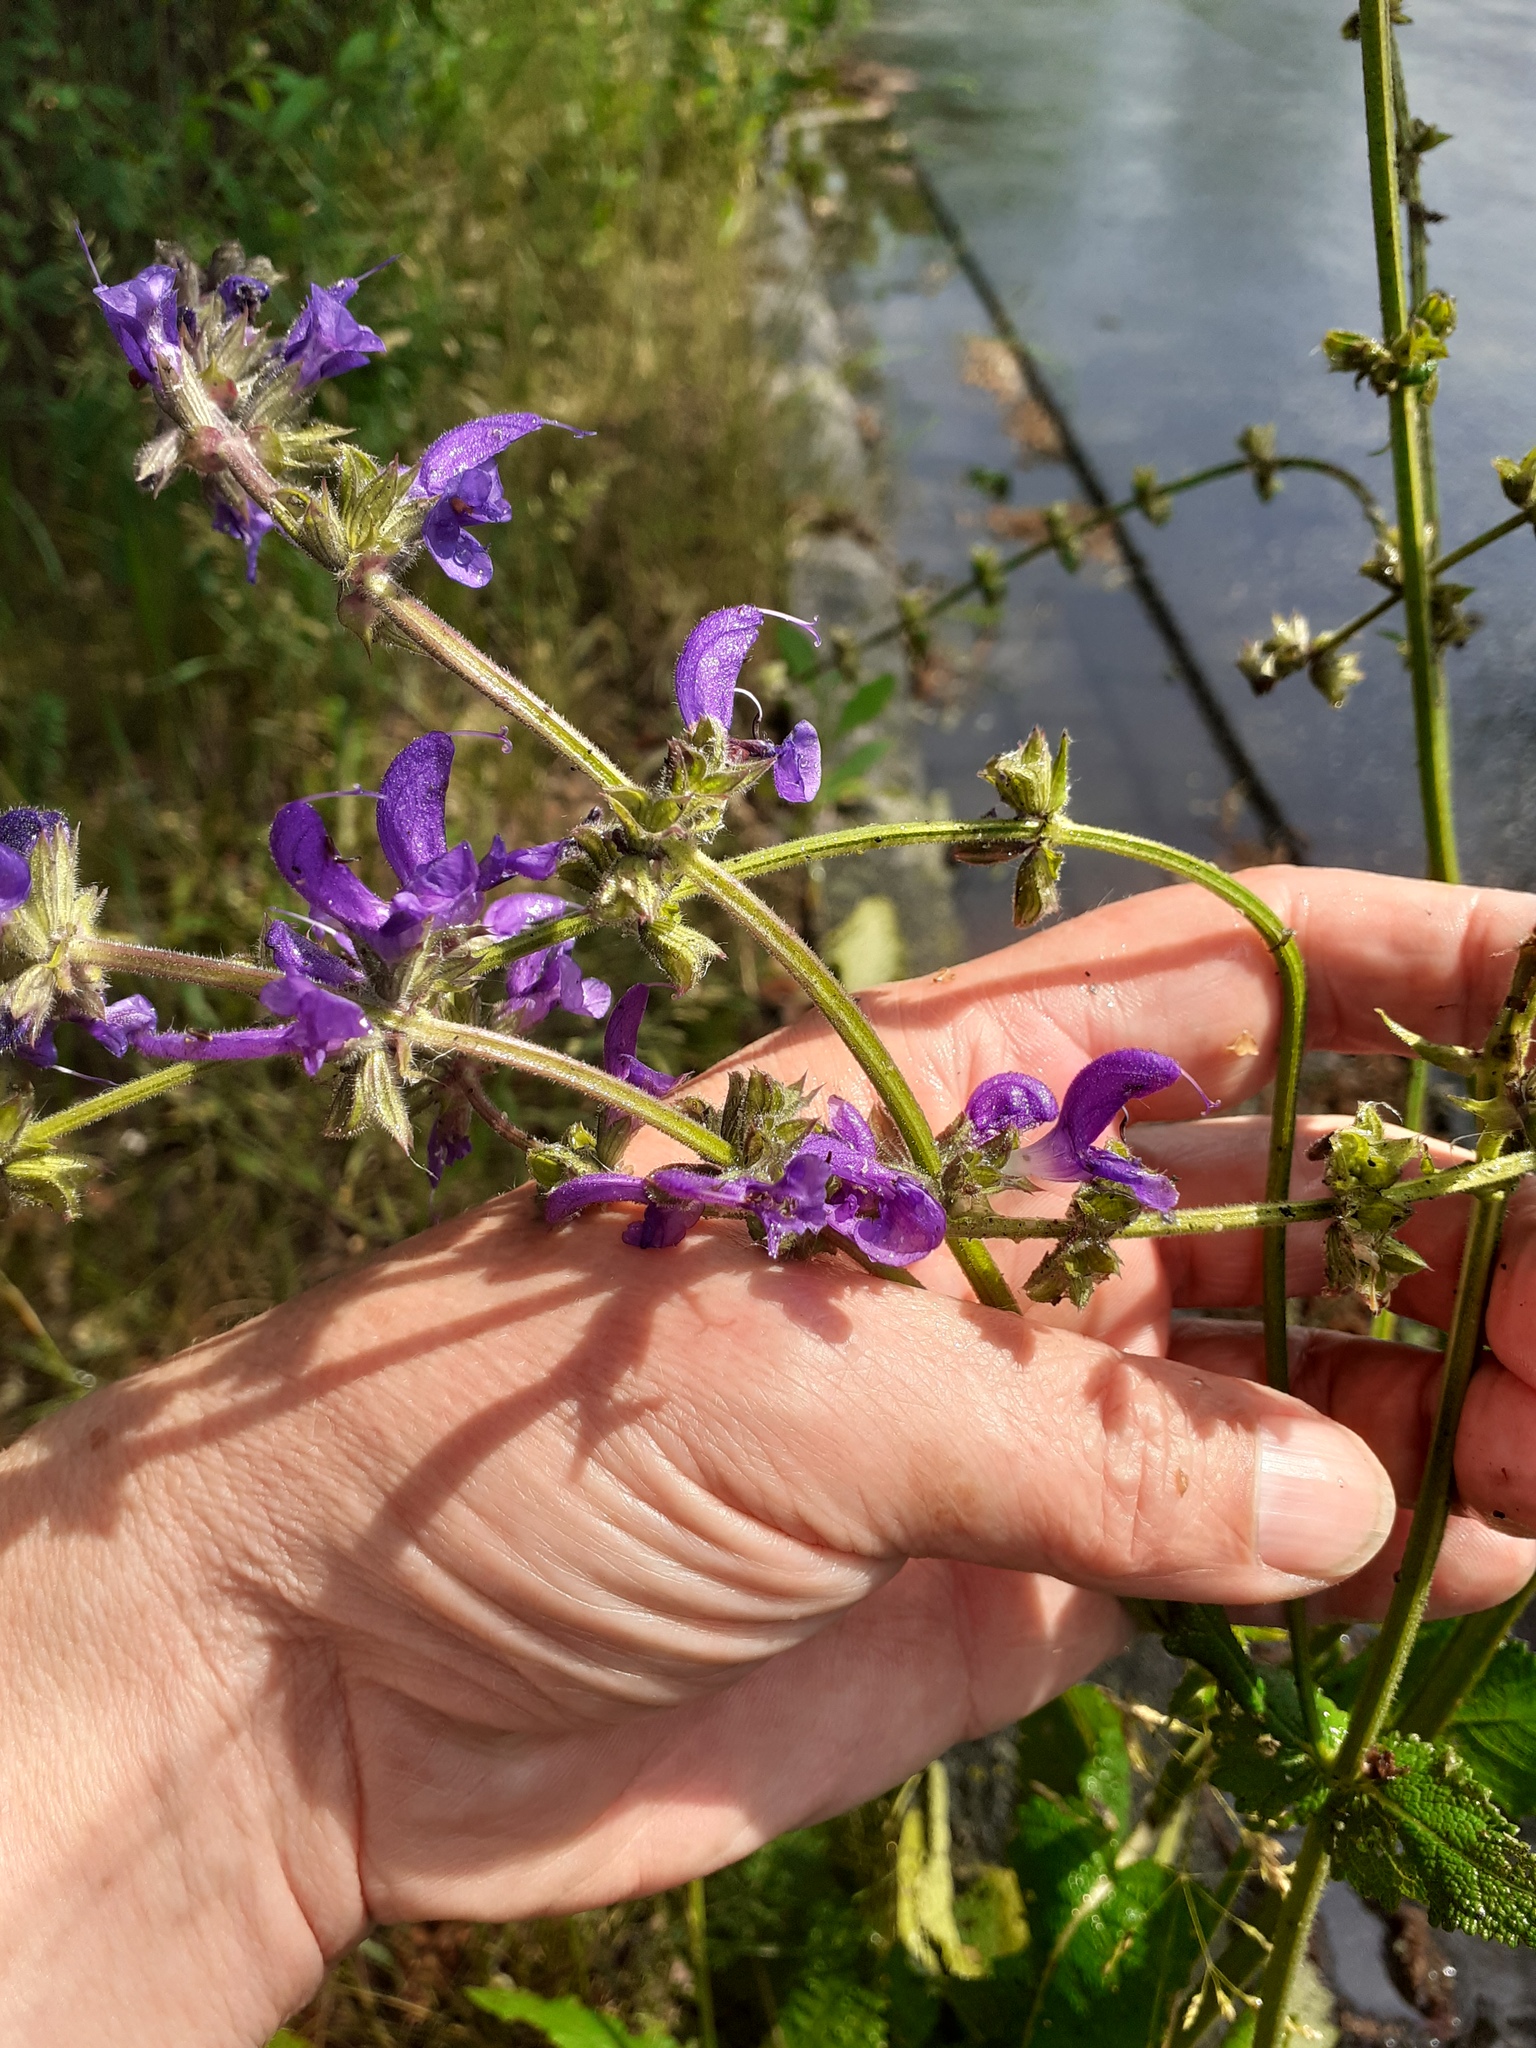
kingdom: Plantae
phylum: Tracheophyta
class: Magnoliopsida
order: Lamiales
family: Lamiaceae
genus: Salvia
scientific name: Salvia pratensis
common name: Meadow sage
